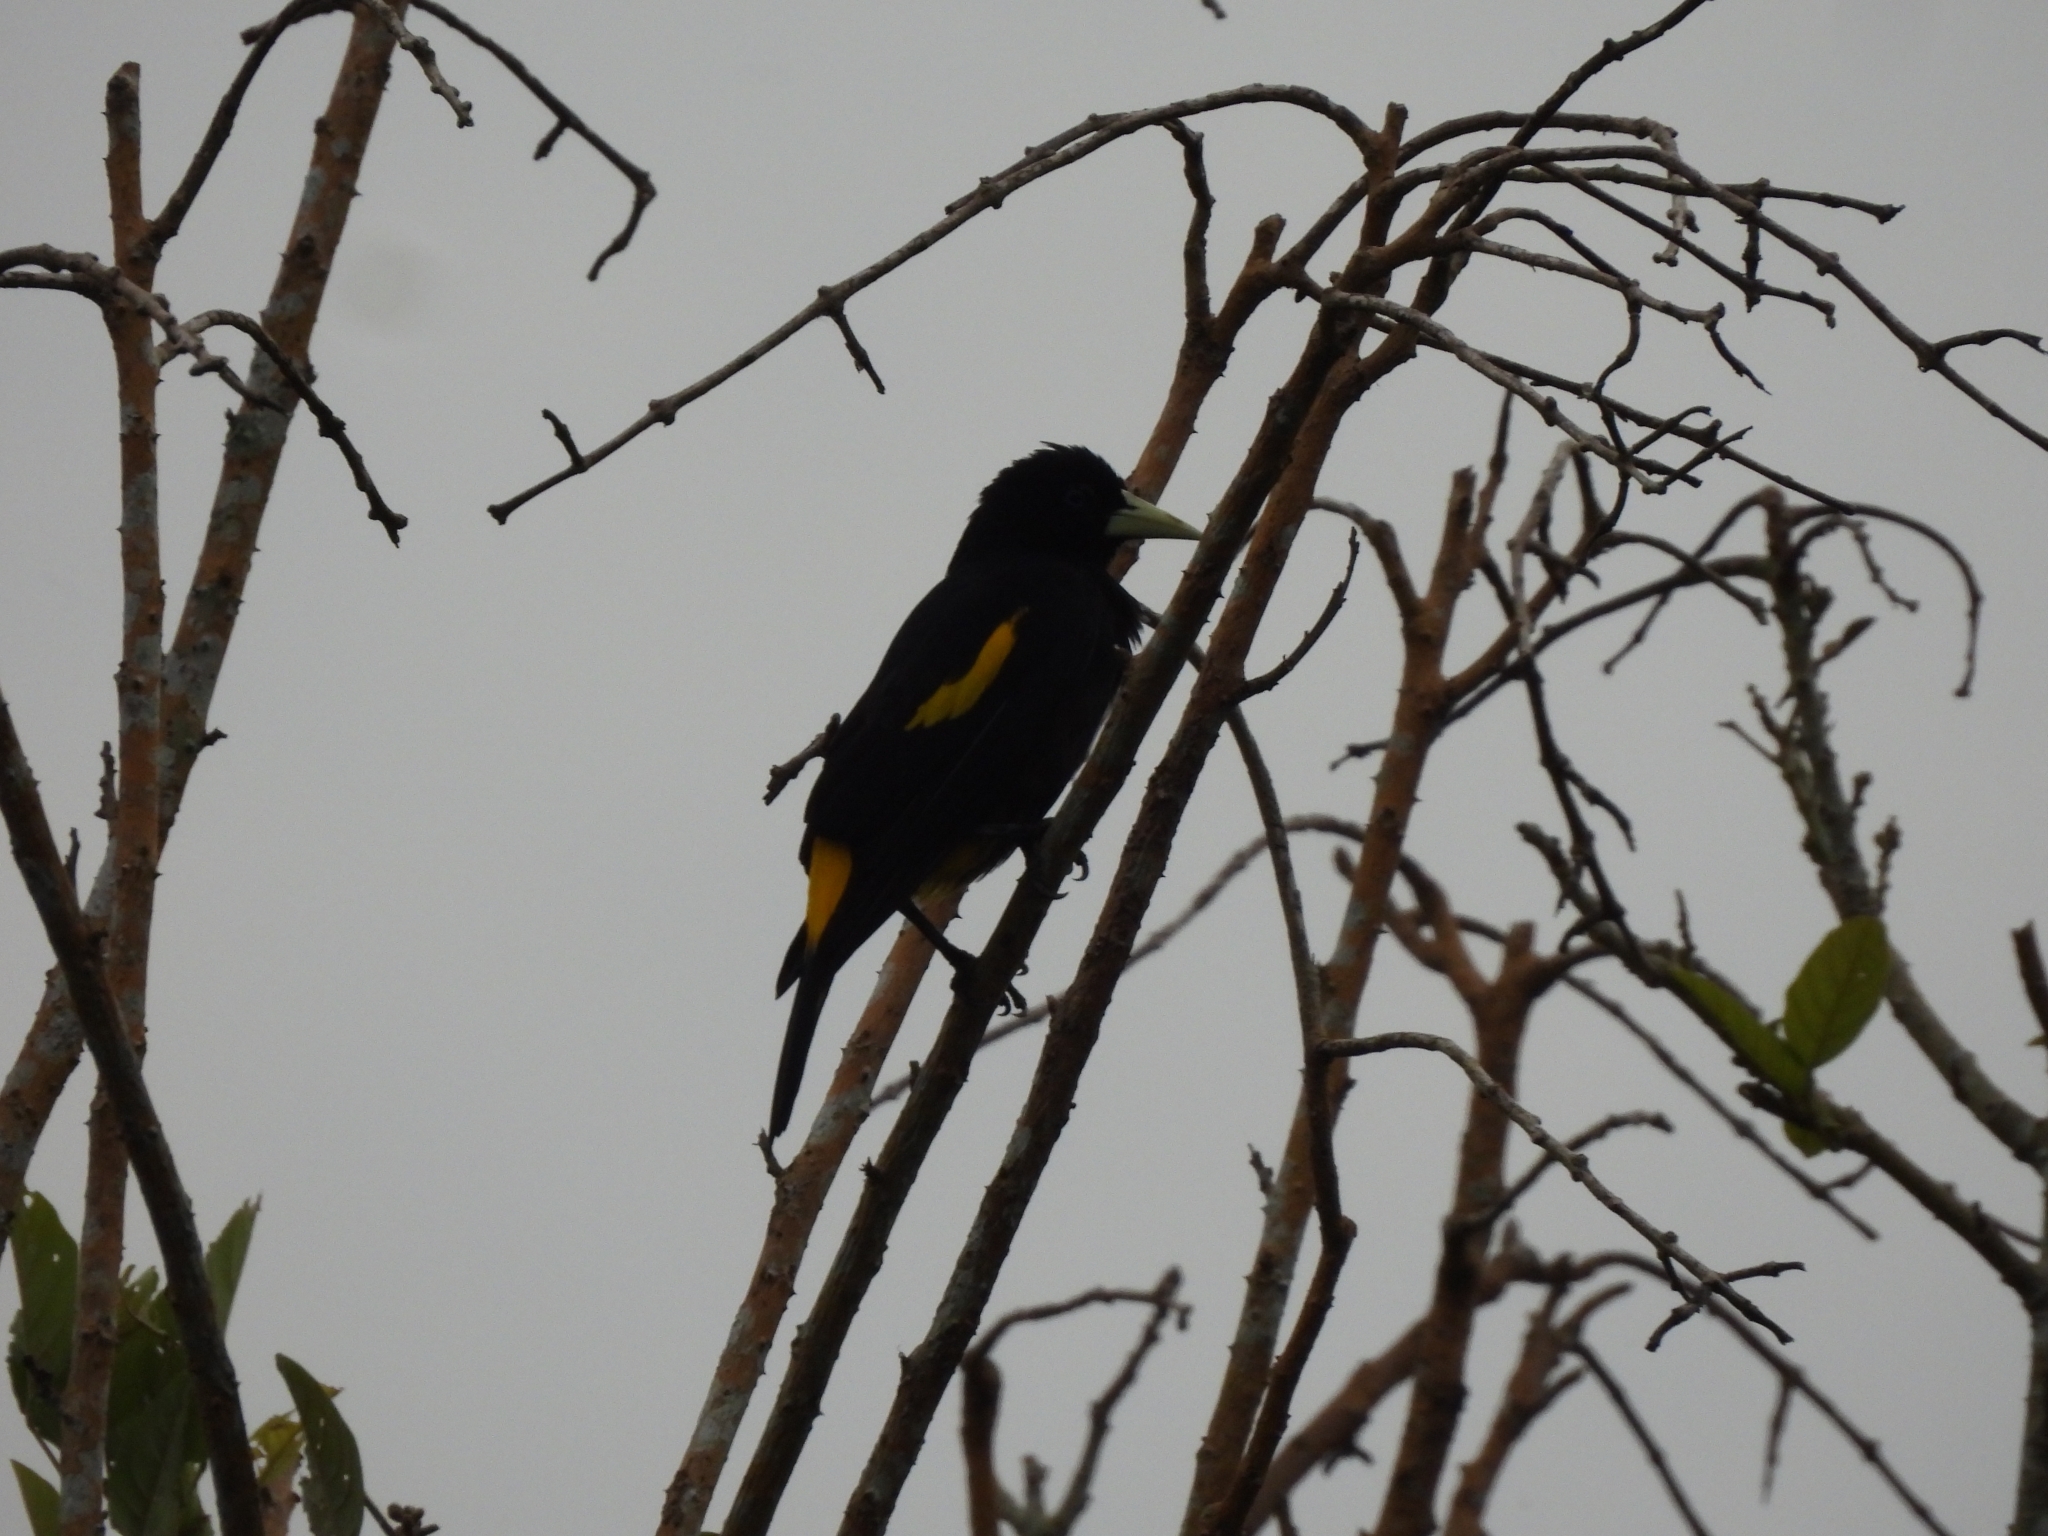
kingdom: Animalia
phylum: Chordata
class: Aves
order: Passeriformes
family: Icteridae
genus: Cacicus
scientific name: Cacicus cela
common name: Yellow-rumped cacique
